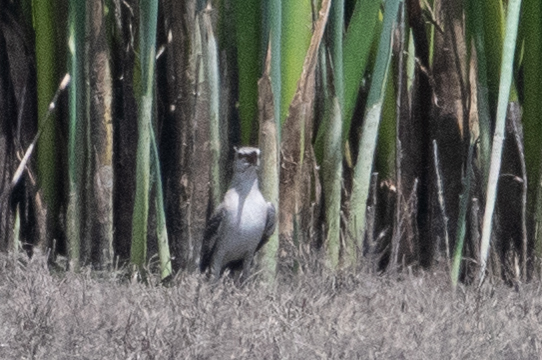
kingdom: Animalia
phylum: Chordata
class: Aves
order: Passeriformes
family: Mimidae
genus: Mimus
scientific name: Mimus polyglottos
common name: Northern mockingbird
